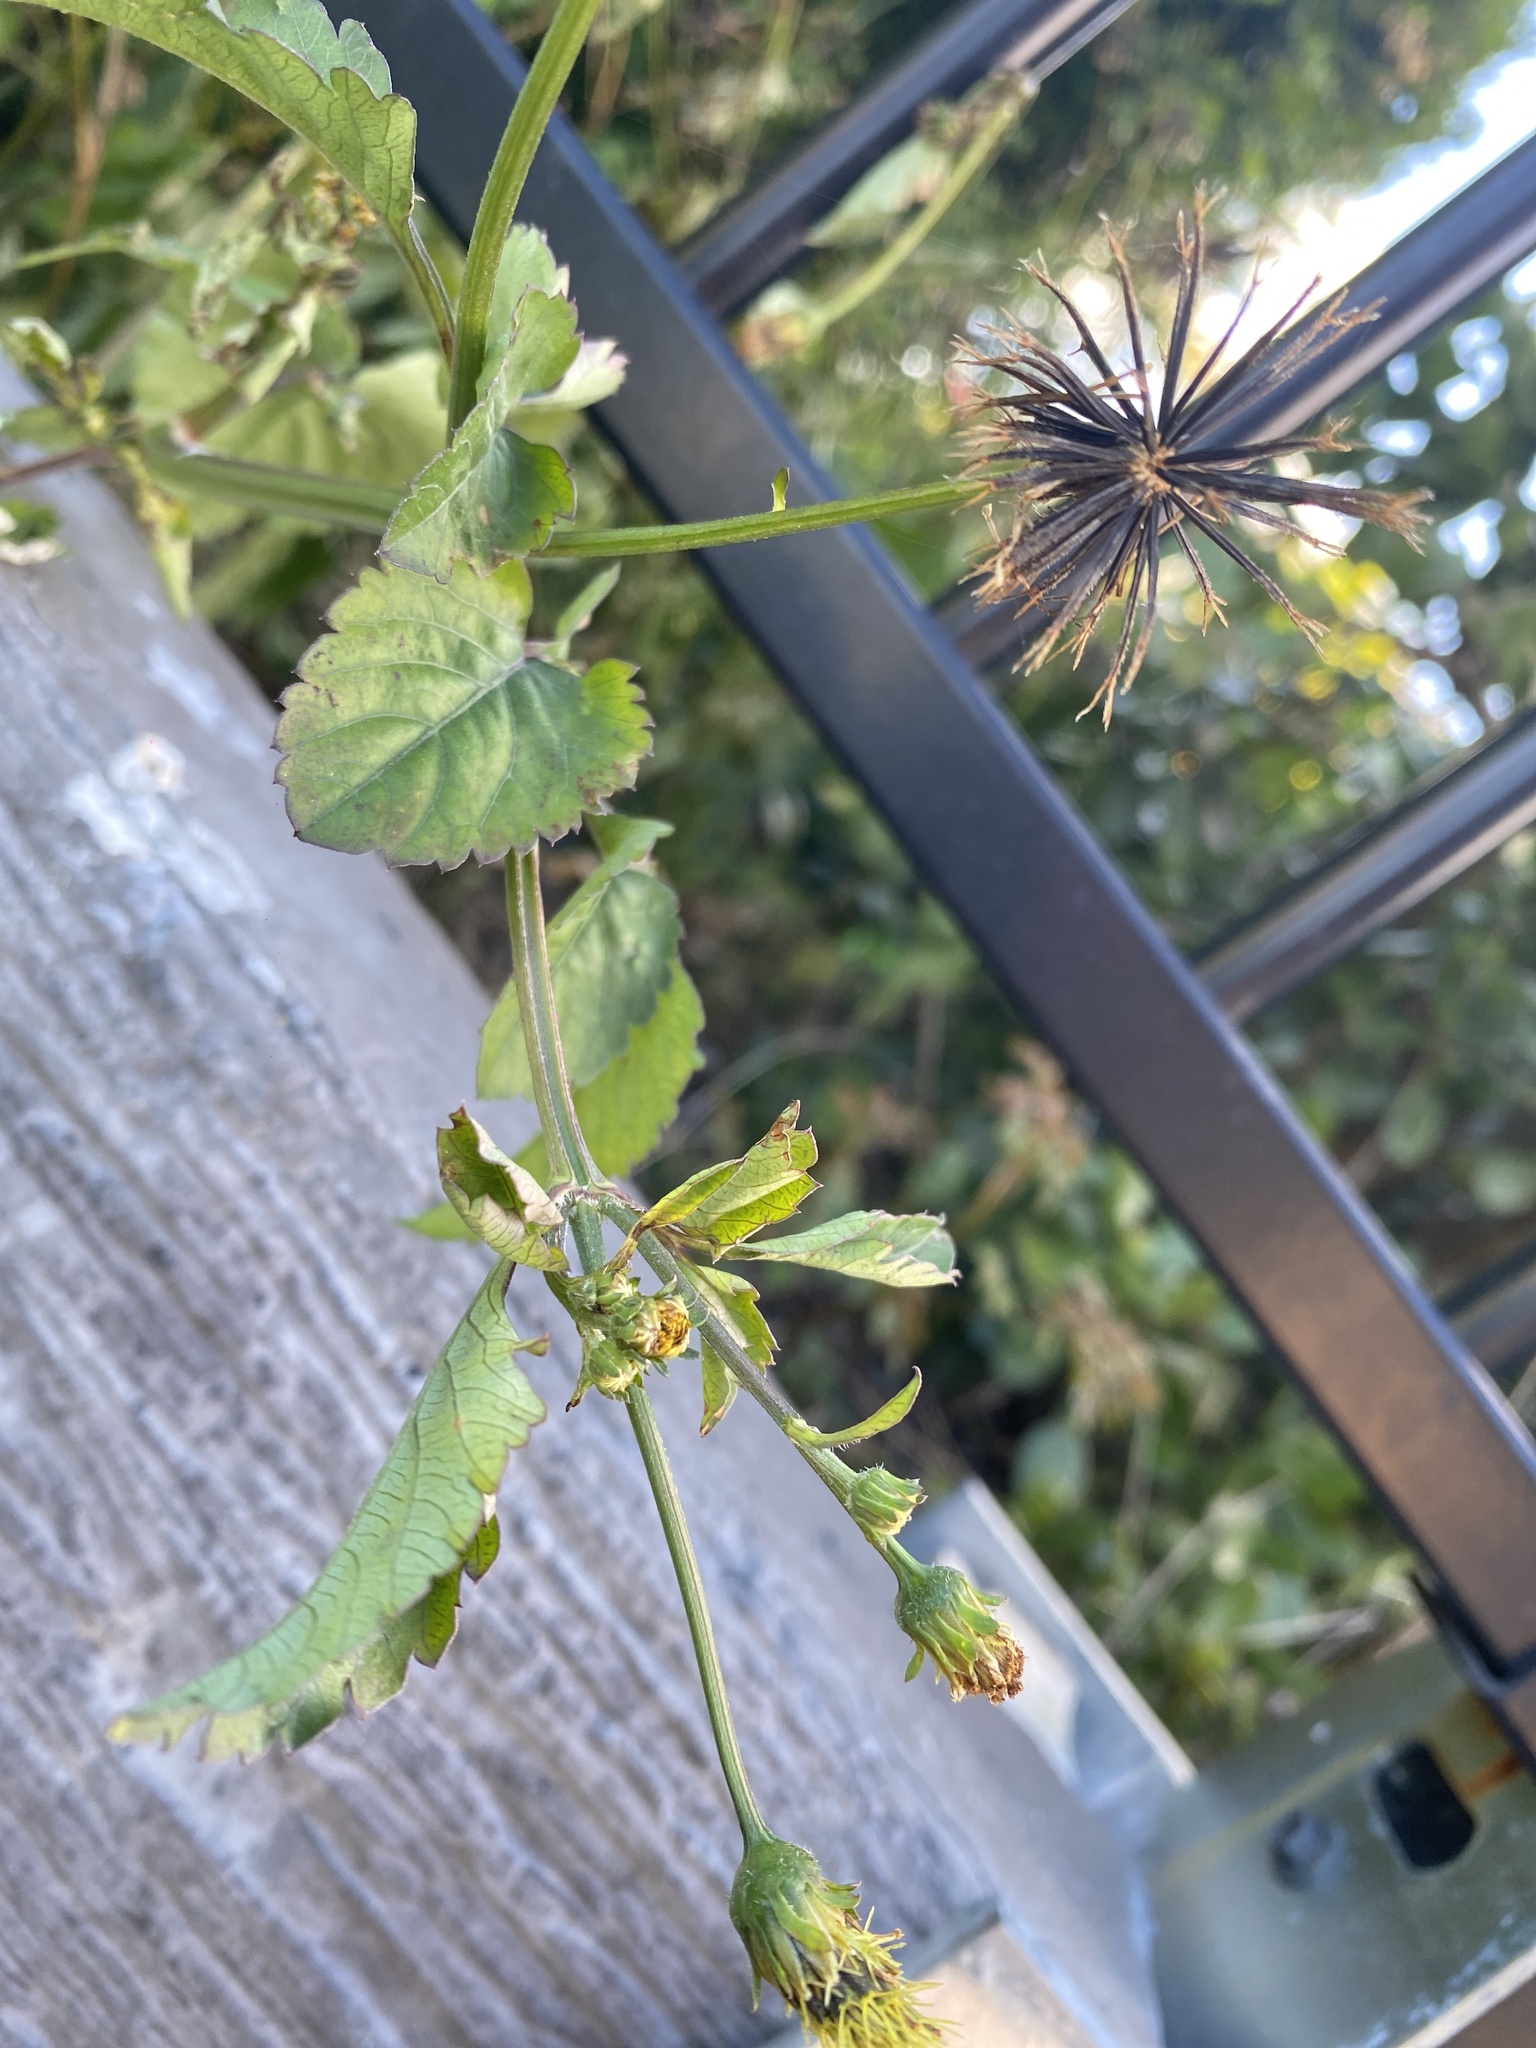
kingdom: Plantae
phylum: Tracheophyta
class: Magnoliopsida
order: Asterales
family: Asteraceae
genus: Bidens
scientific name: Bidens pilosa
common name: Black-jack
